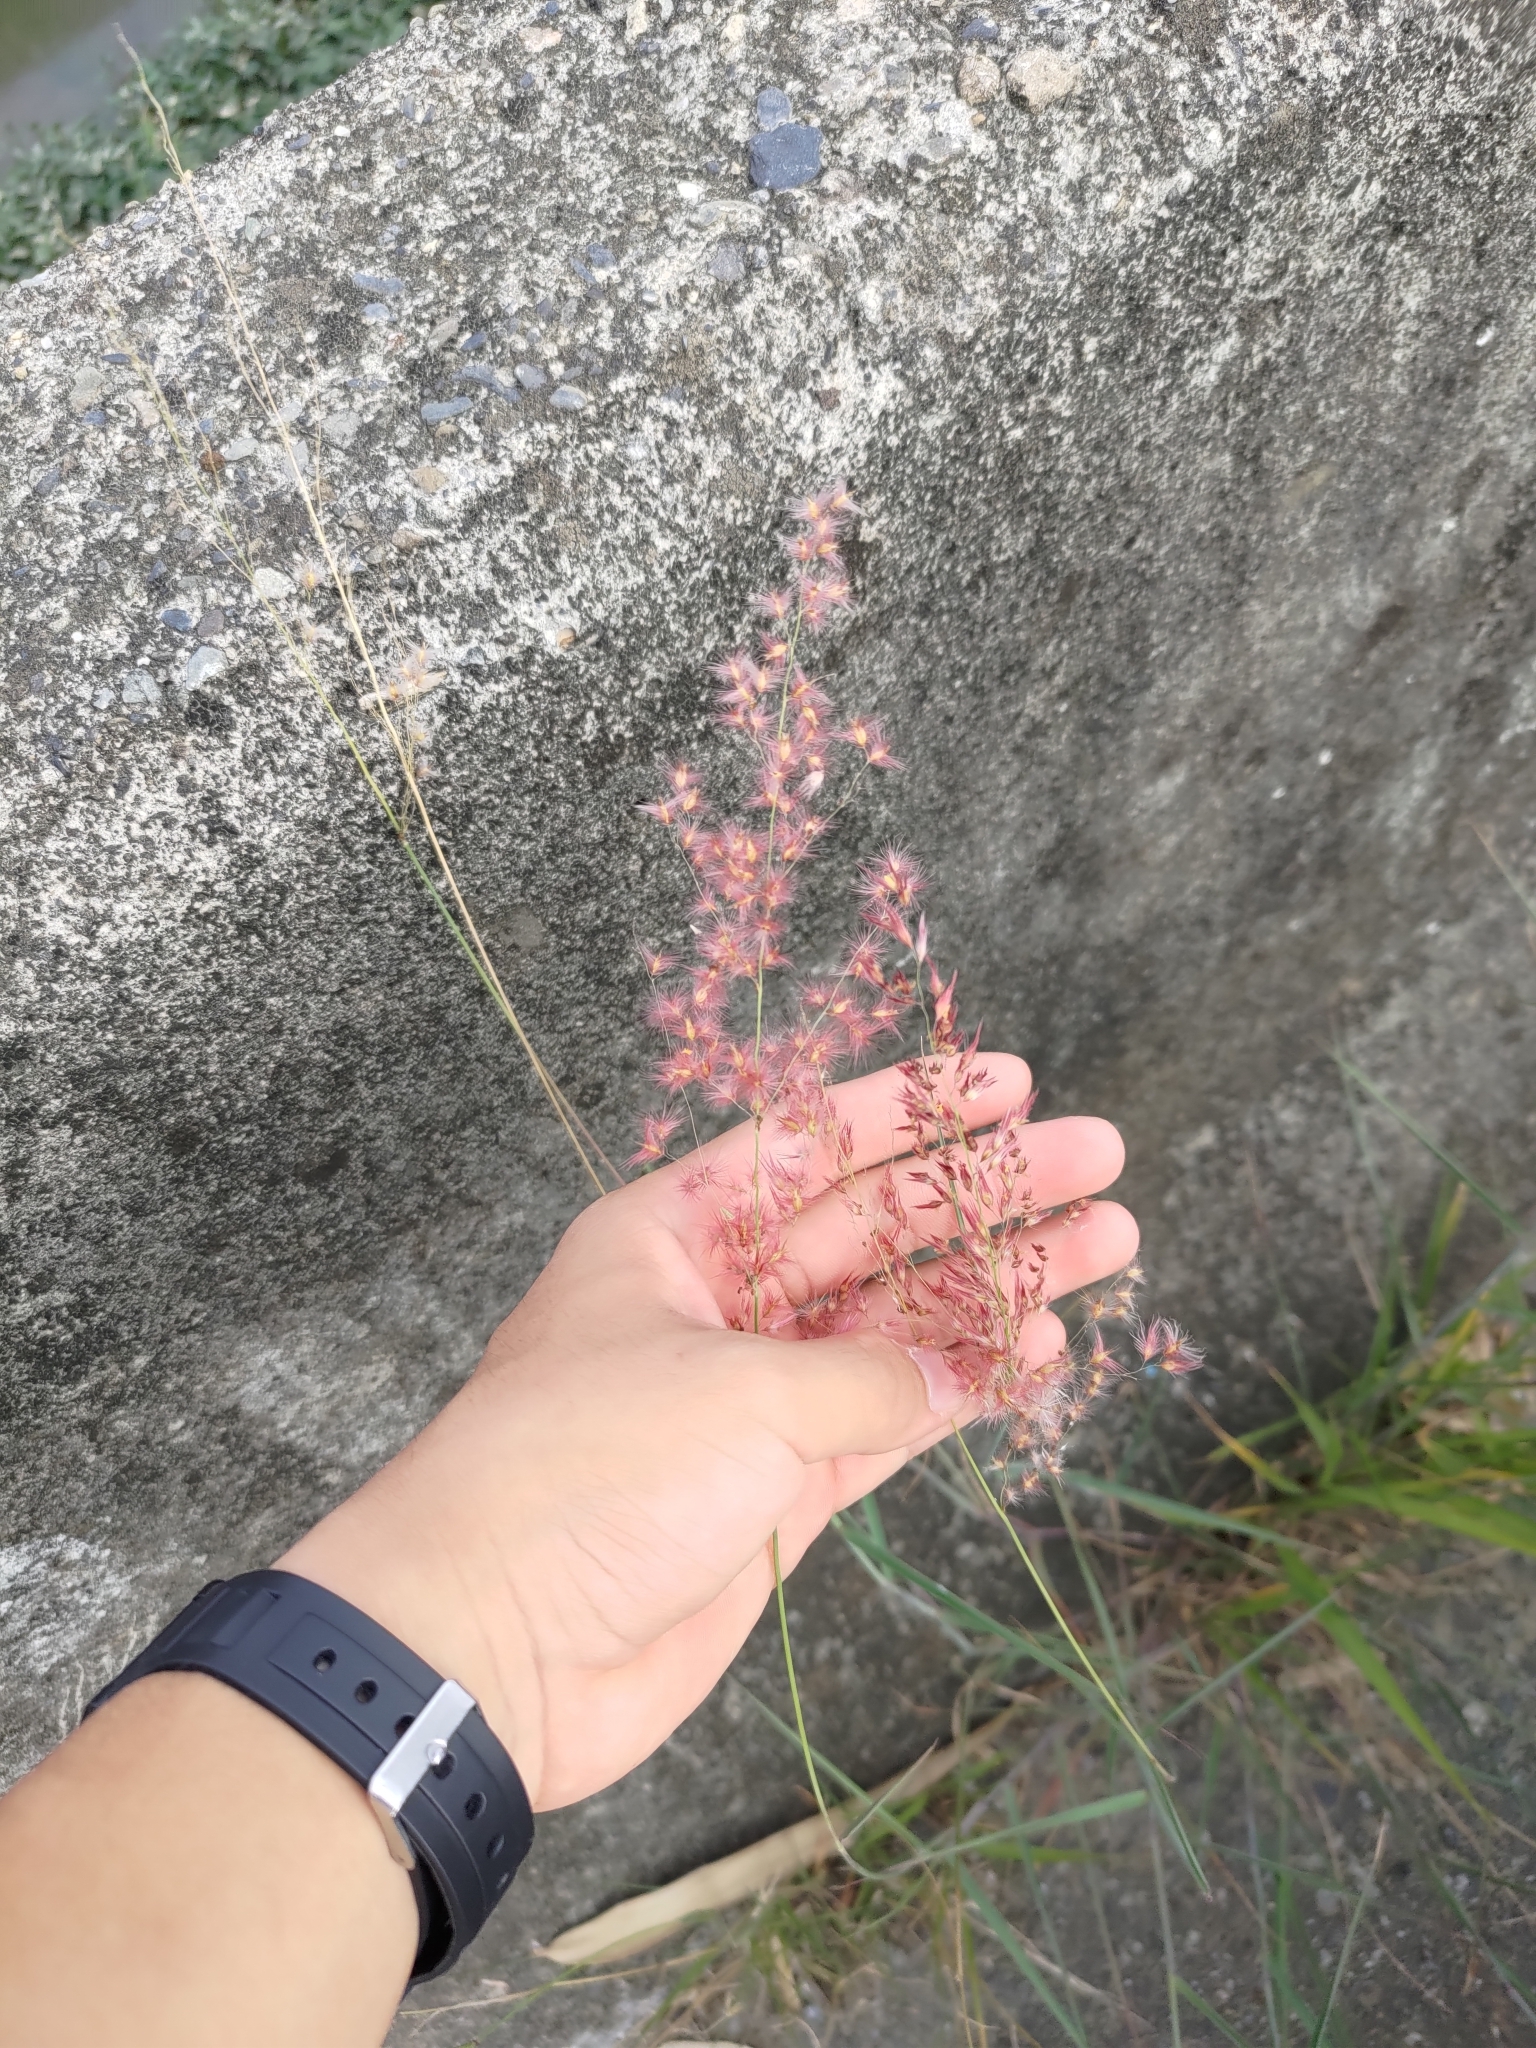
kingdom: Plantae
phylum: Tracheophyta
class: Liliopsida
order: Poales
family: Poaceae
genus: Melinis
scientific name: Melinis repens
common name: Rose natal grass
